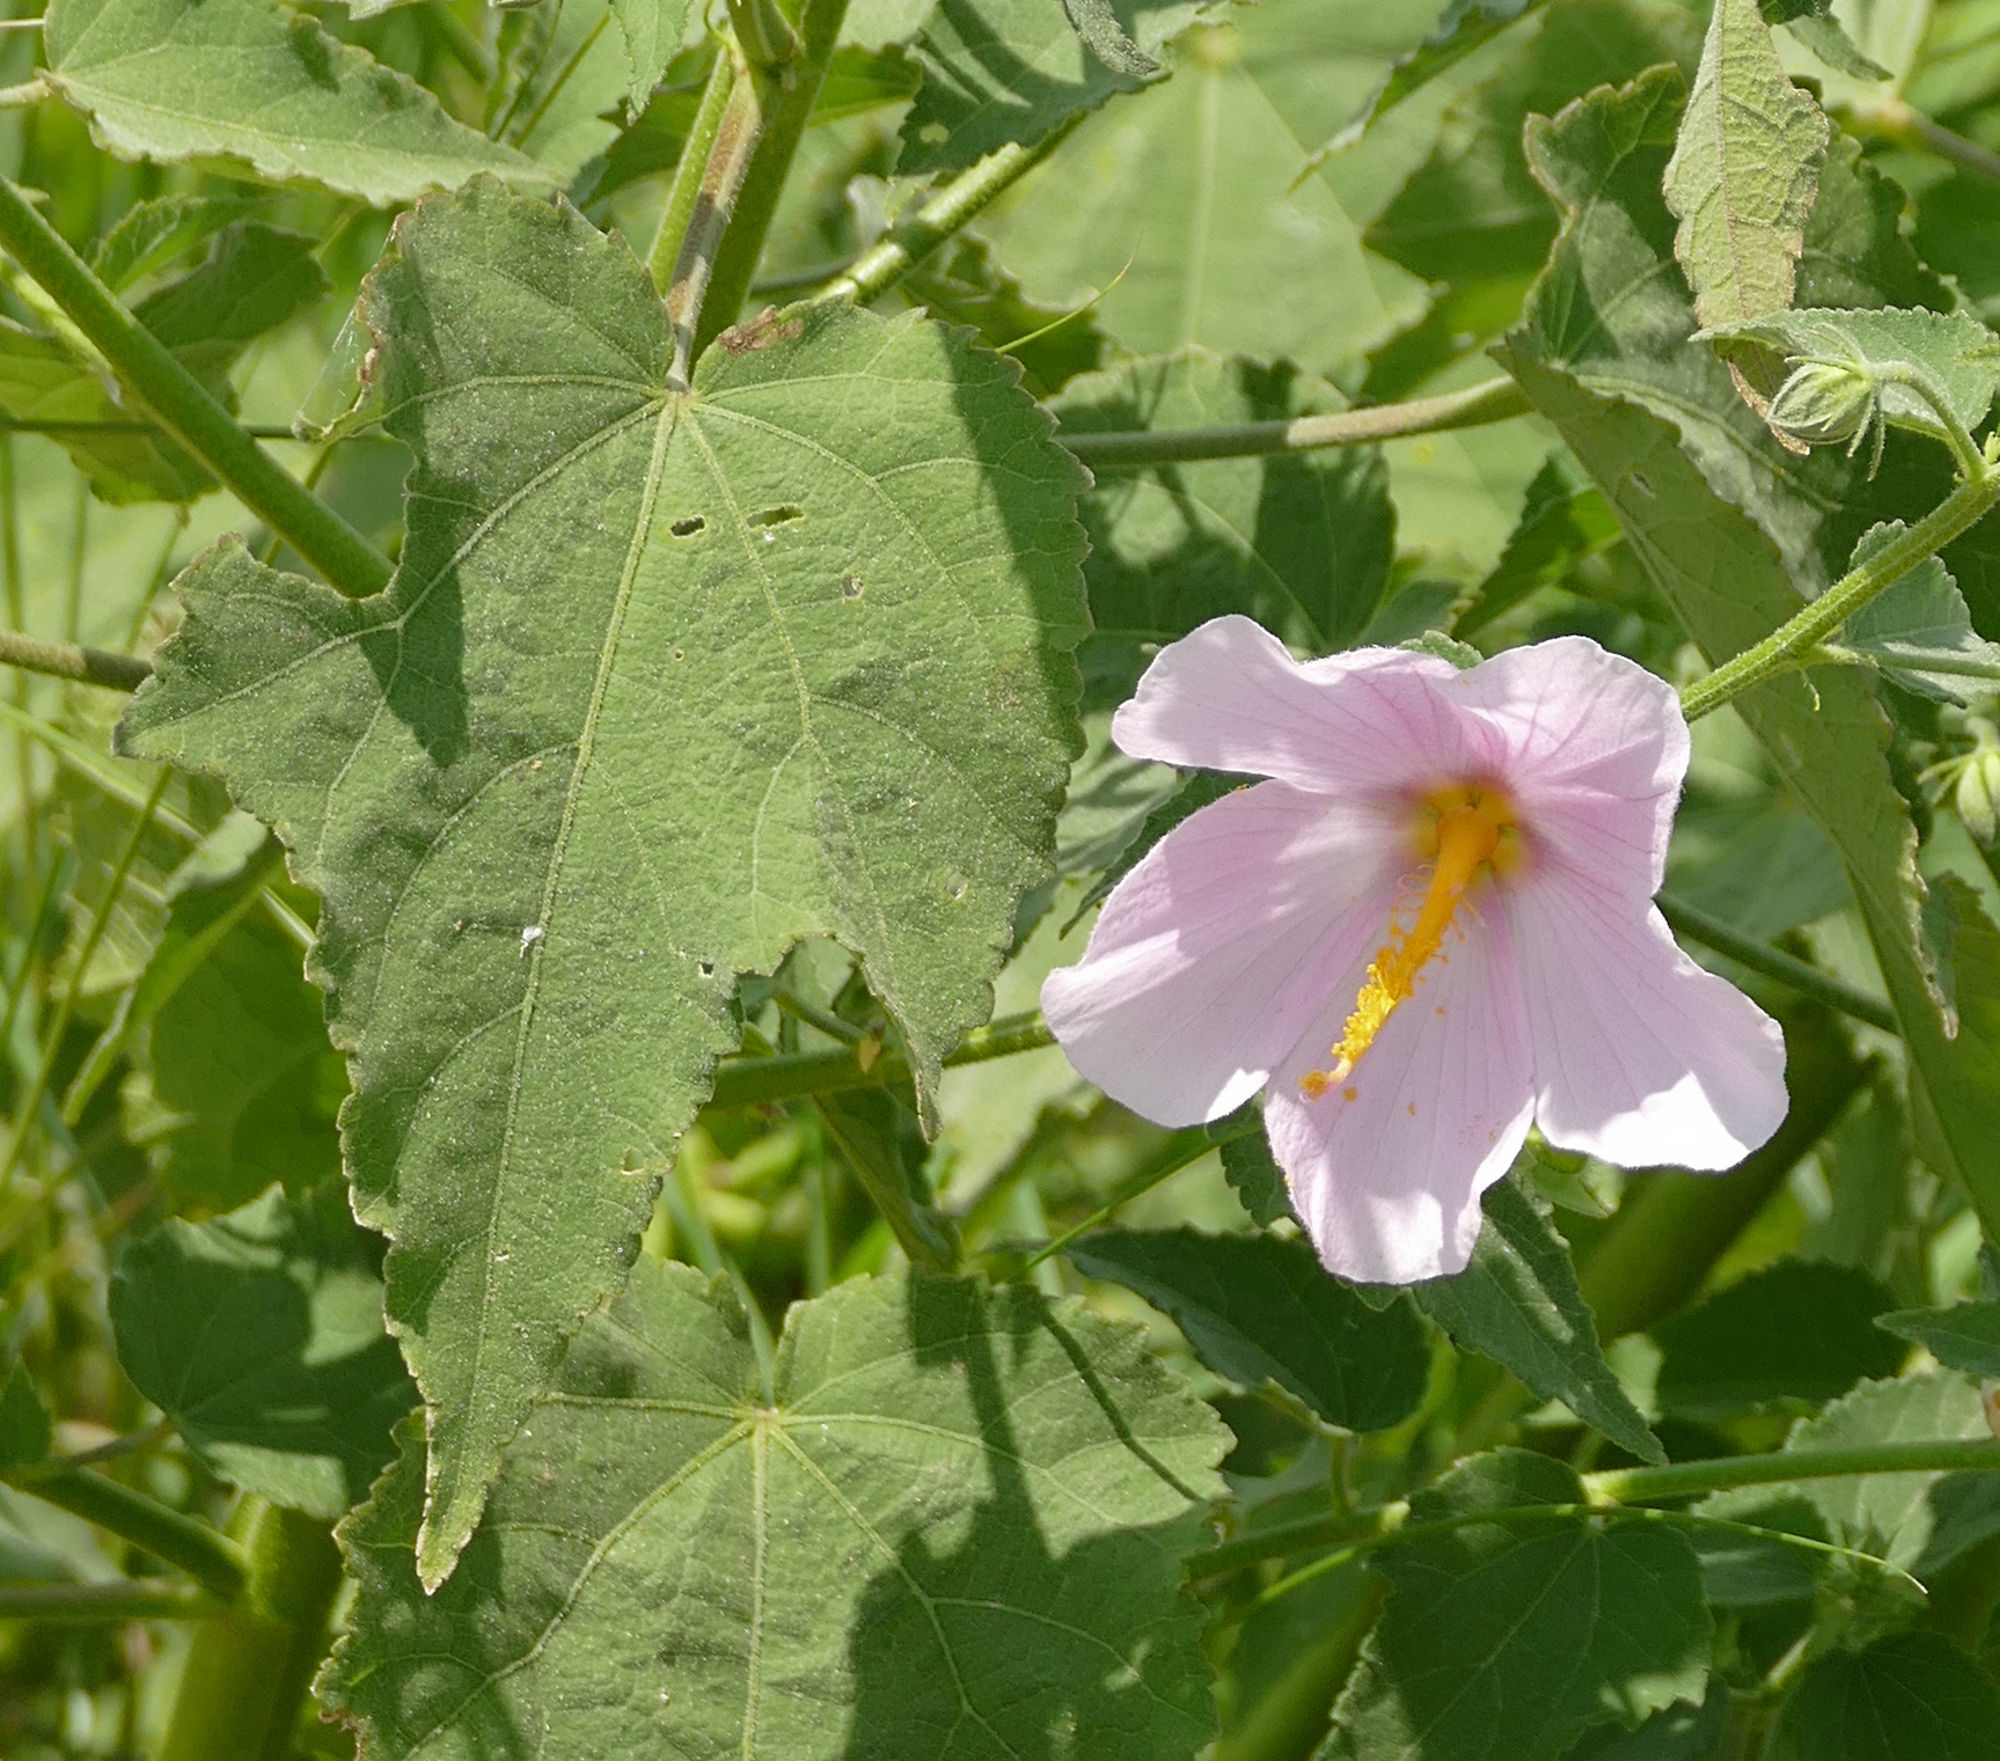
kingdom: Plantae
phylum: Tracheophyta
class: Magnoliopsida
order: Malvales
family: Malvaceae
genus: Kosteletzkya
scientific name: Kosteletzkya pentacarpos
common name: Virginia saltmarsh mallow
